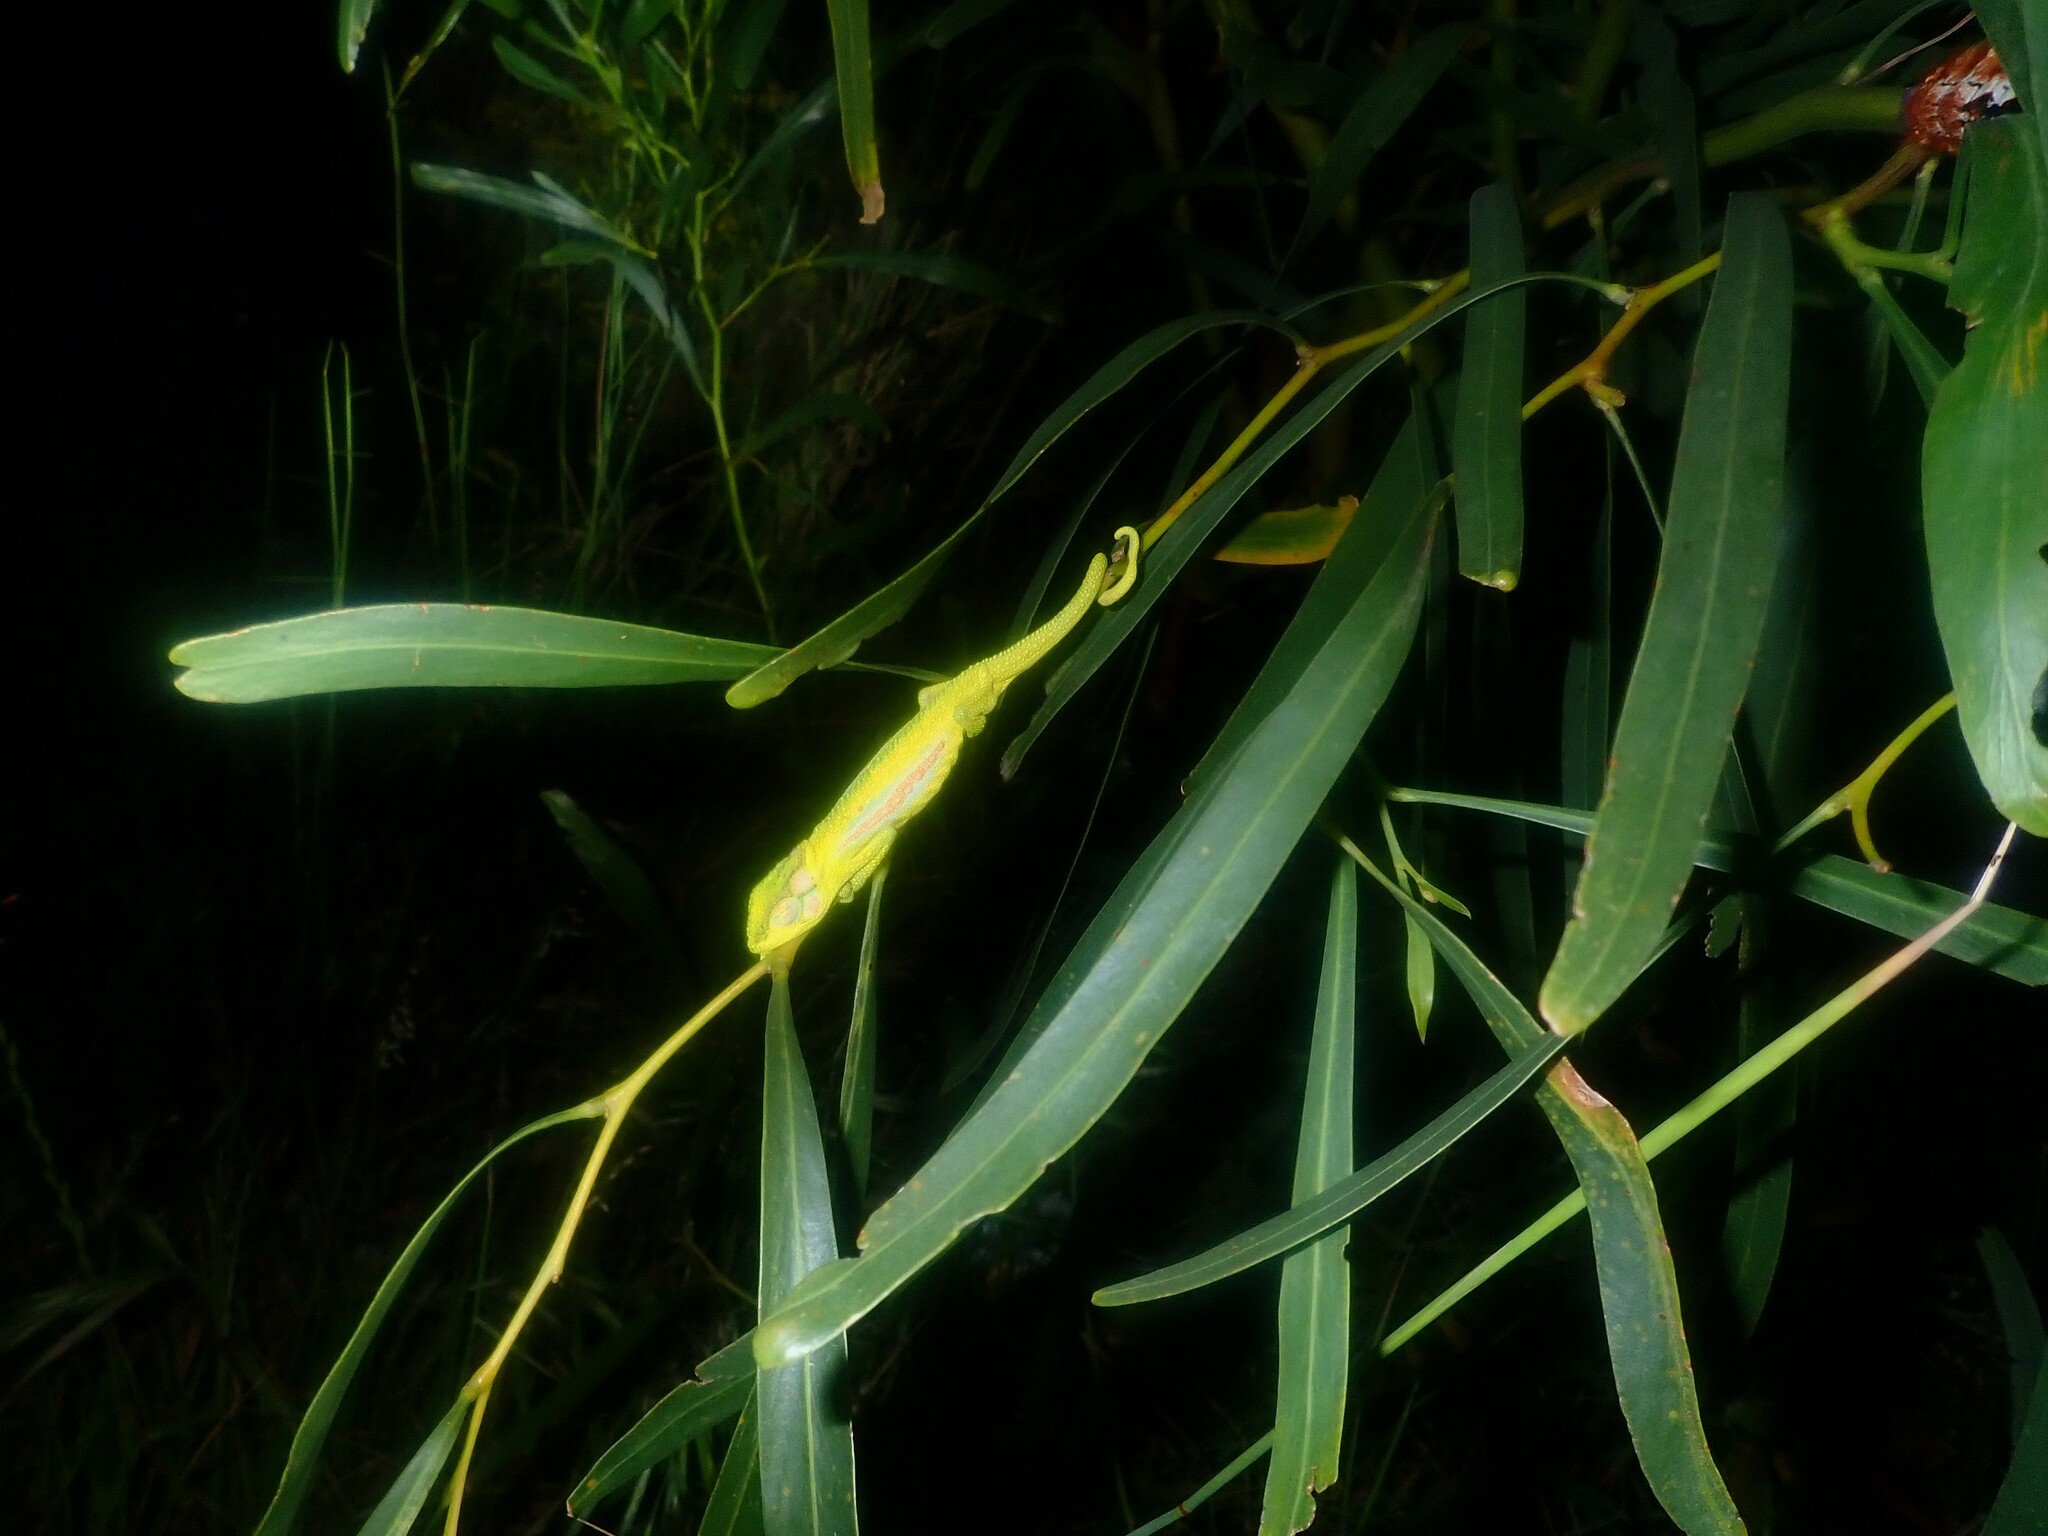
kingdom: Animalia
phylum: Chordata
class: Squamata
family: Chamaeleonidae
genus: Bradypodion
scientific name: Bradypodion pumilum
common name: Cape dwarf chameleon
